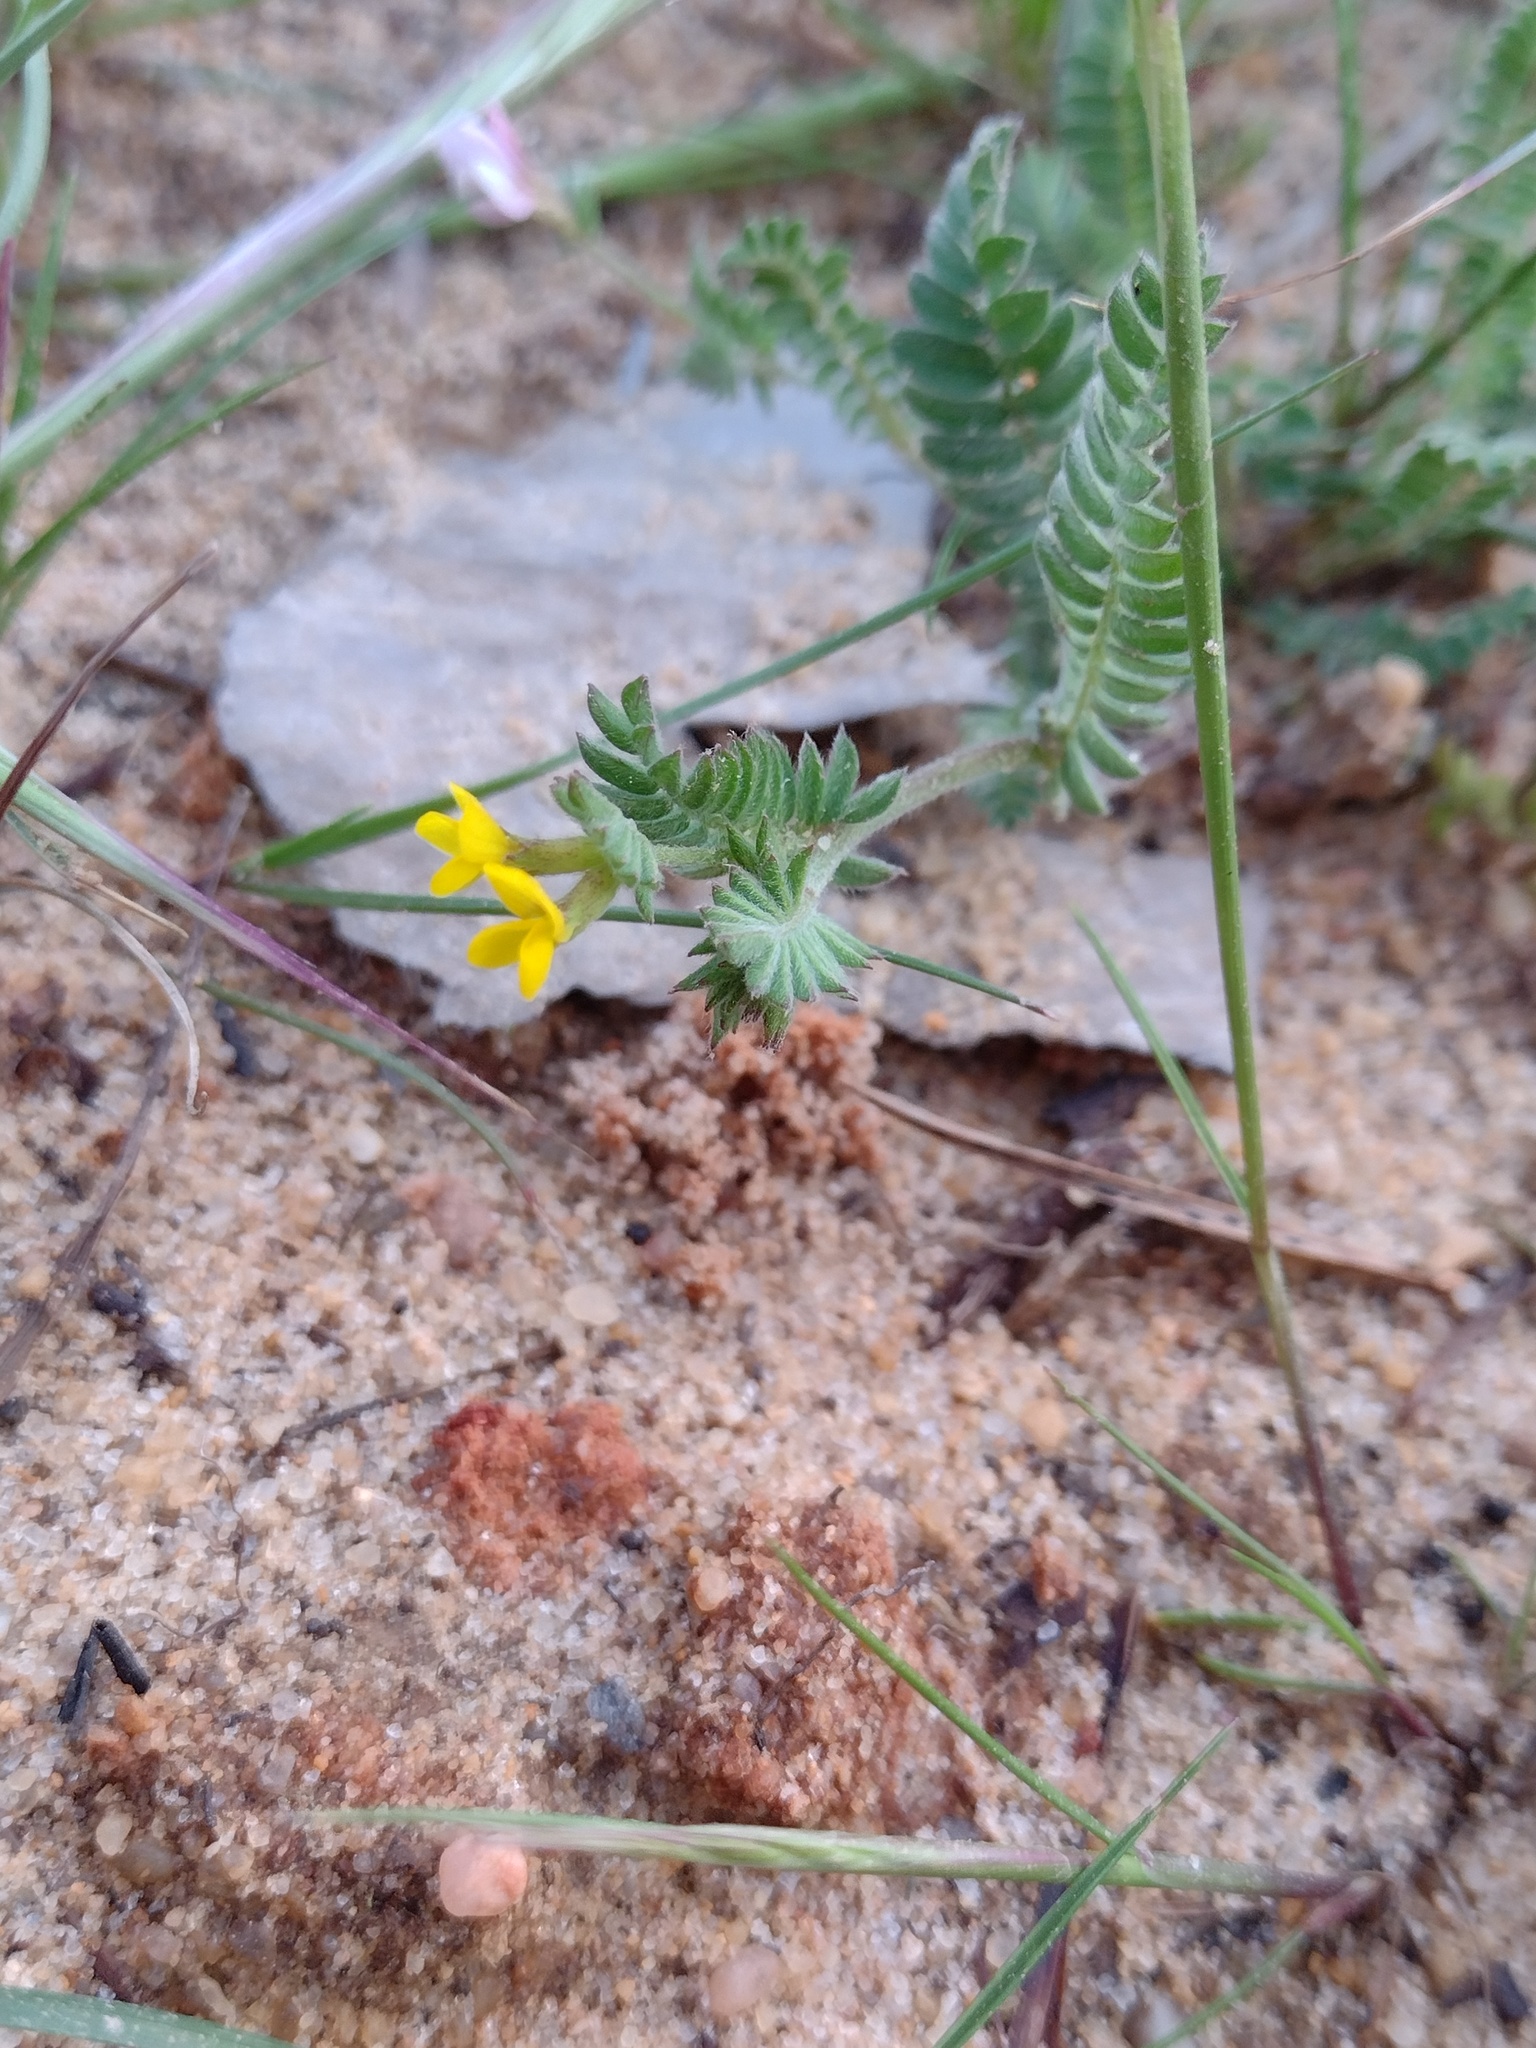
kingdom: Plantae
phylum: Tracheophyta
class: Magnoliopsida
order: Fabales
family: Fabaceae
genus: Ornithopus
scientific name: Ornithopus compressus
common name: Yellow serradella
